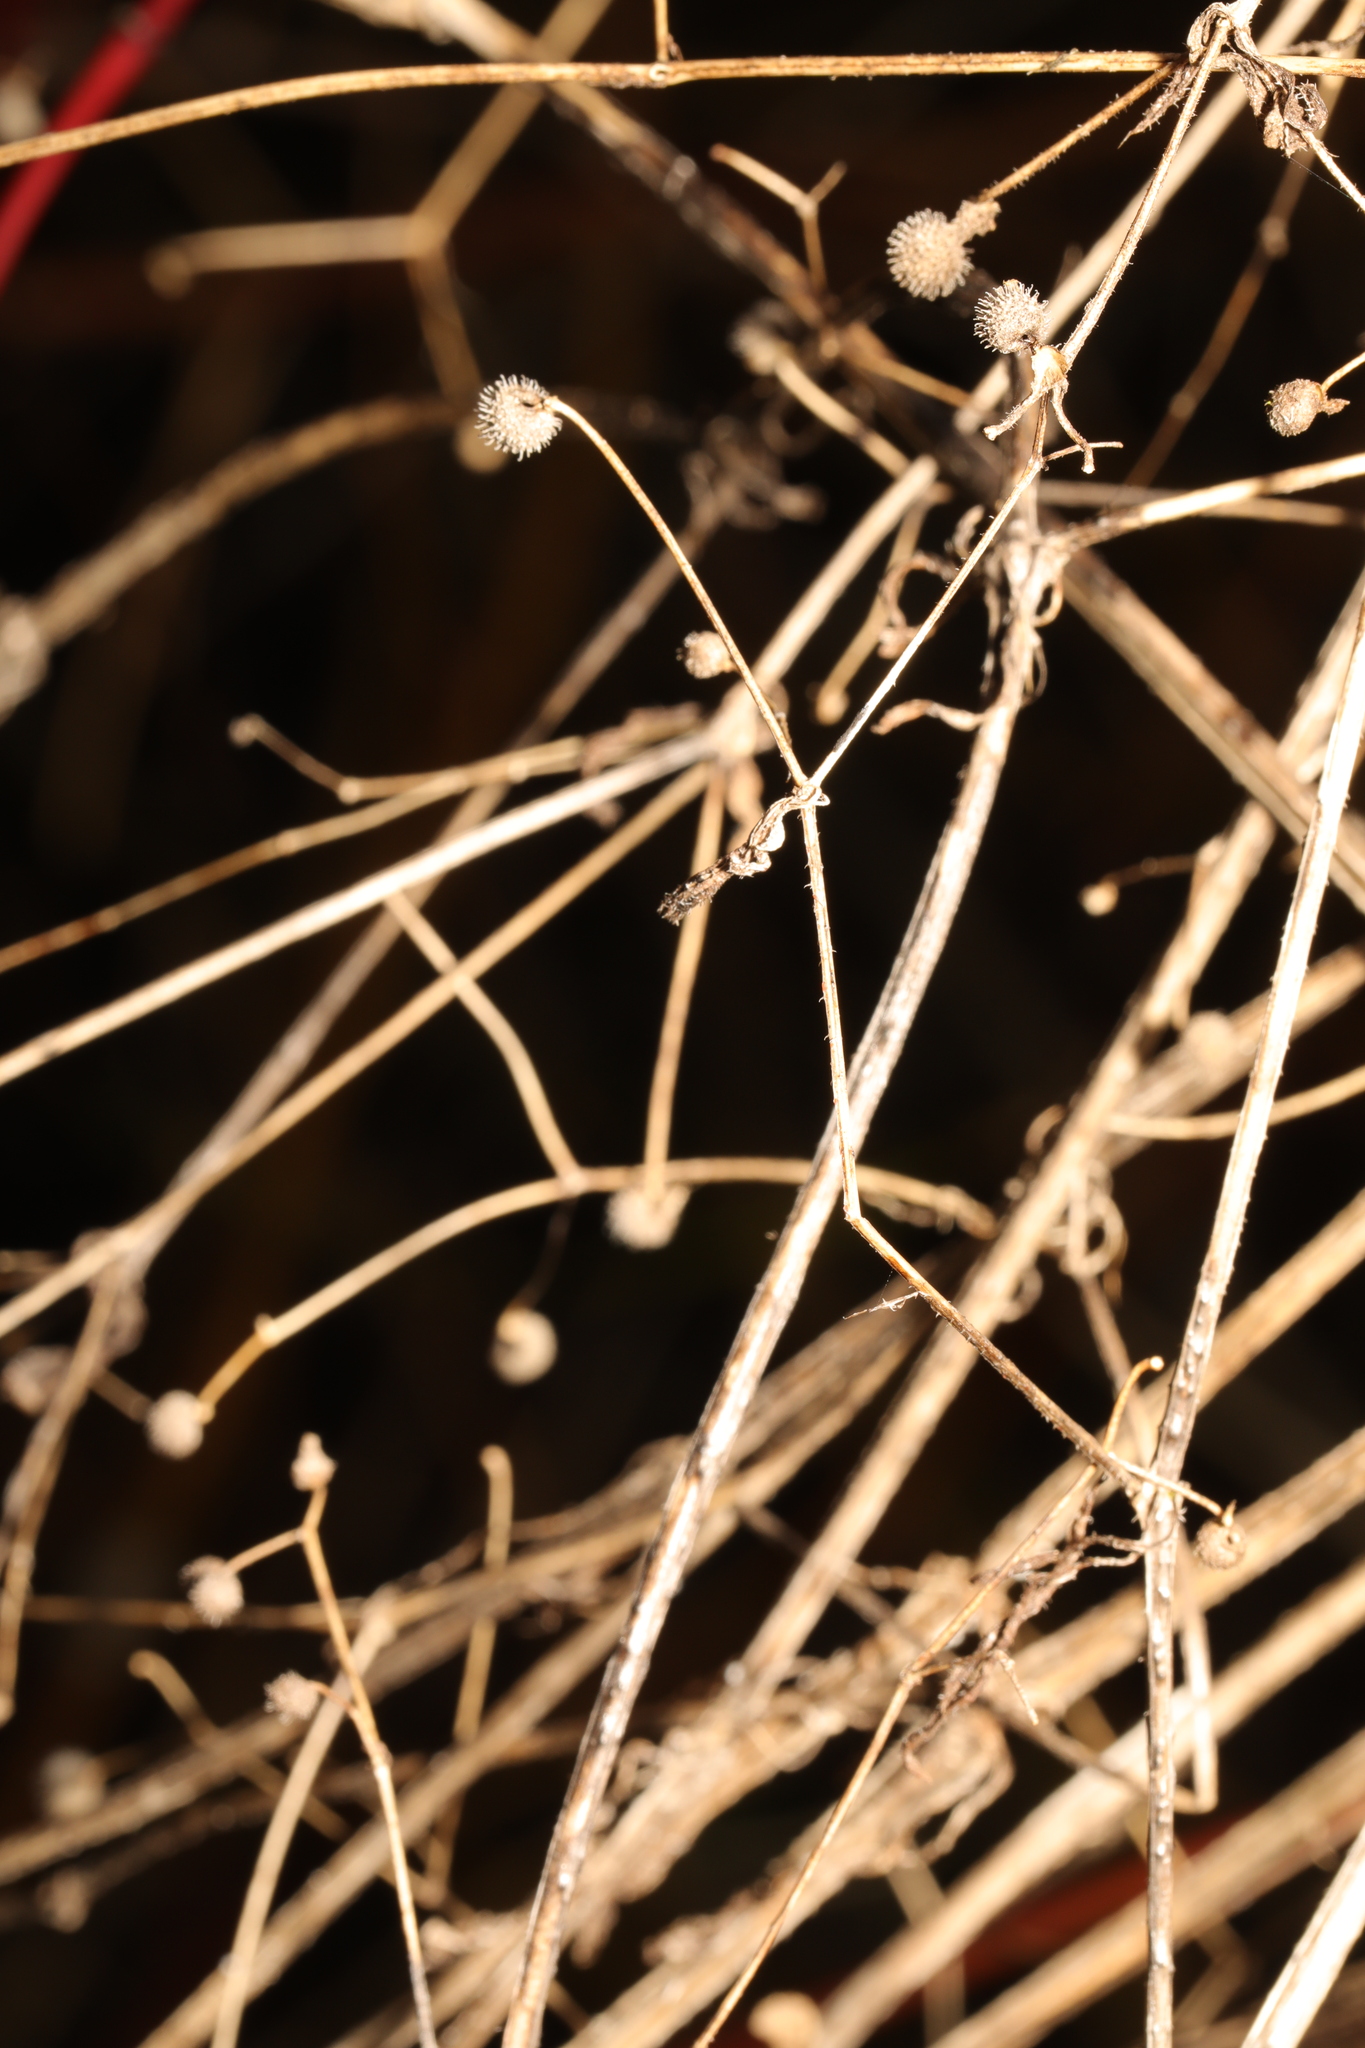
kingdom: Plantae
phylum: Tracheophyta
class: Magnoliopsida
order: Gentianales
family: Rubiaceae
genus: Galium
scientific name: Galium aparine
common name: Cleavers
